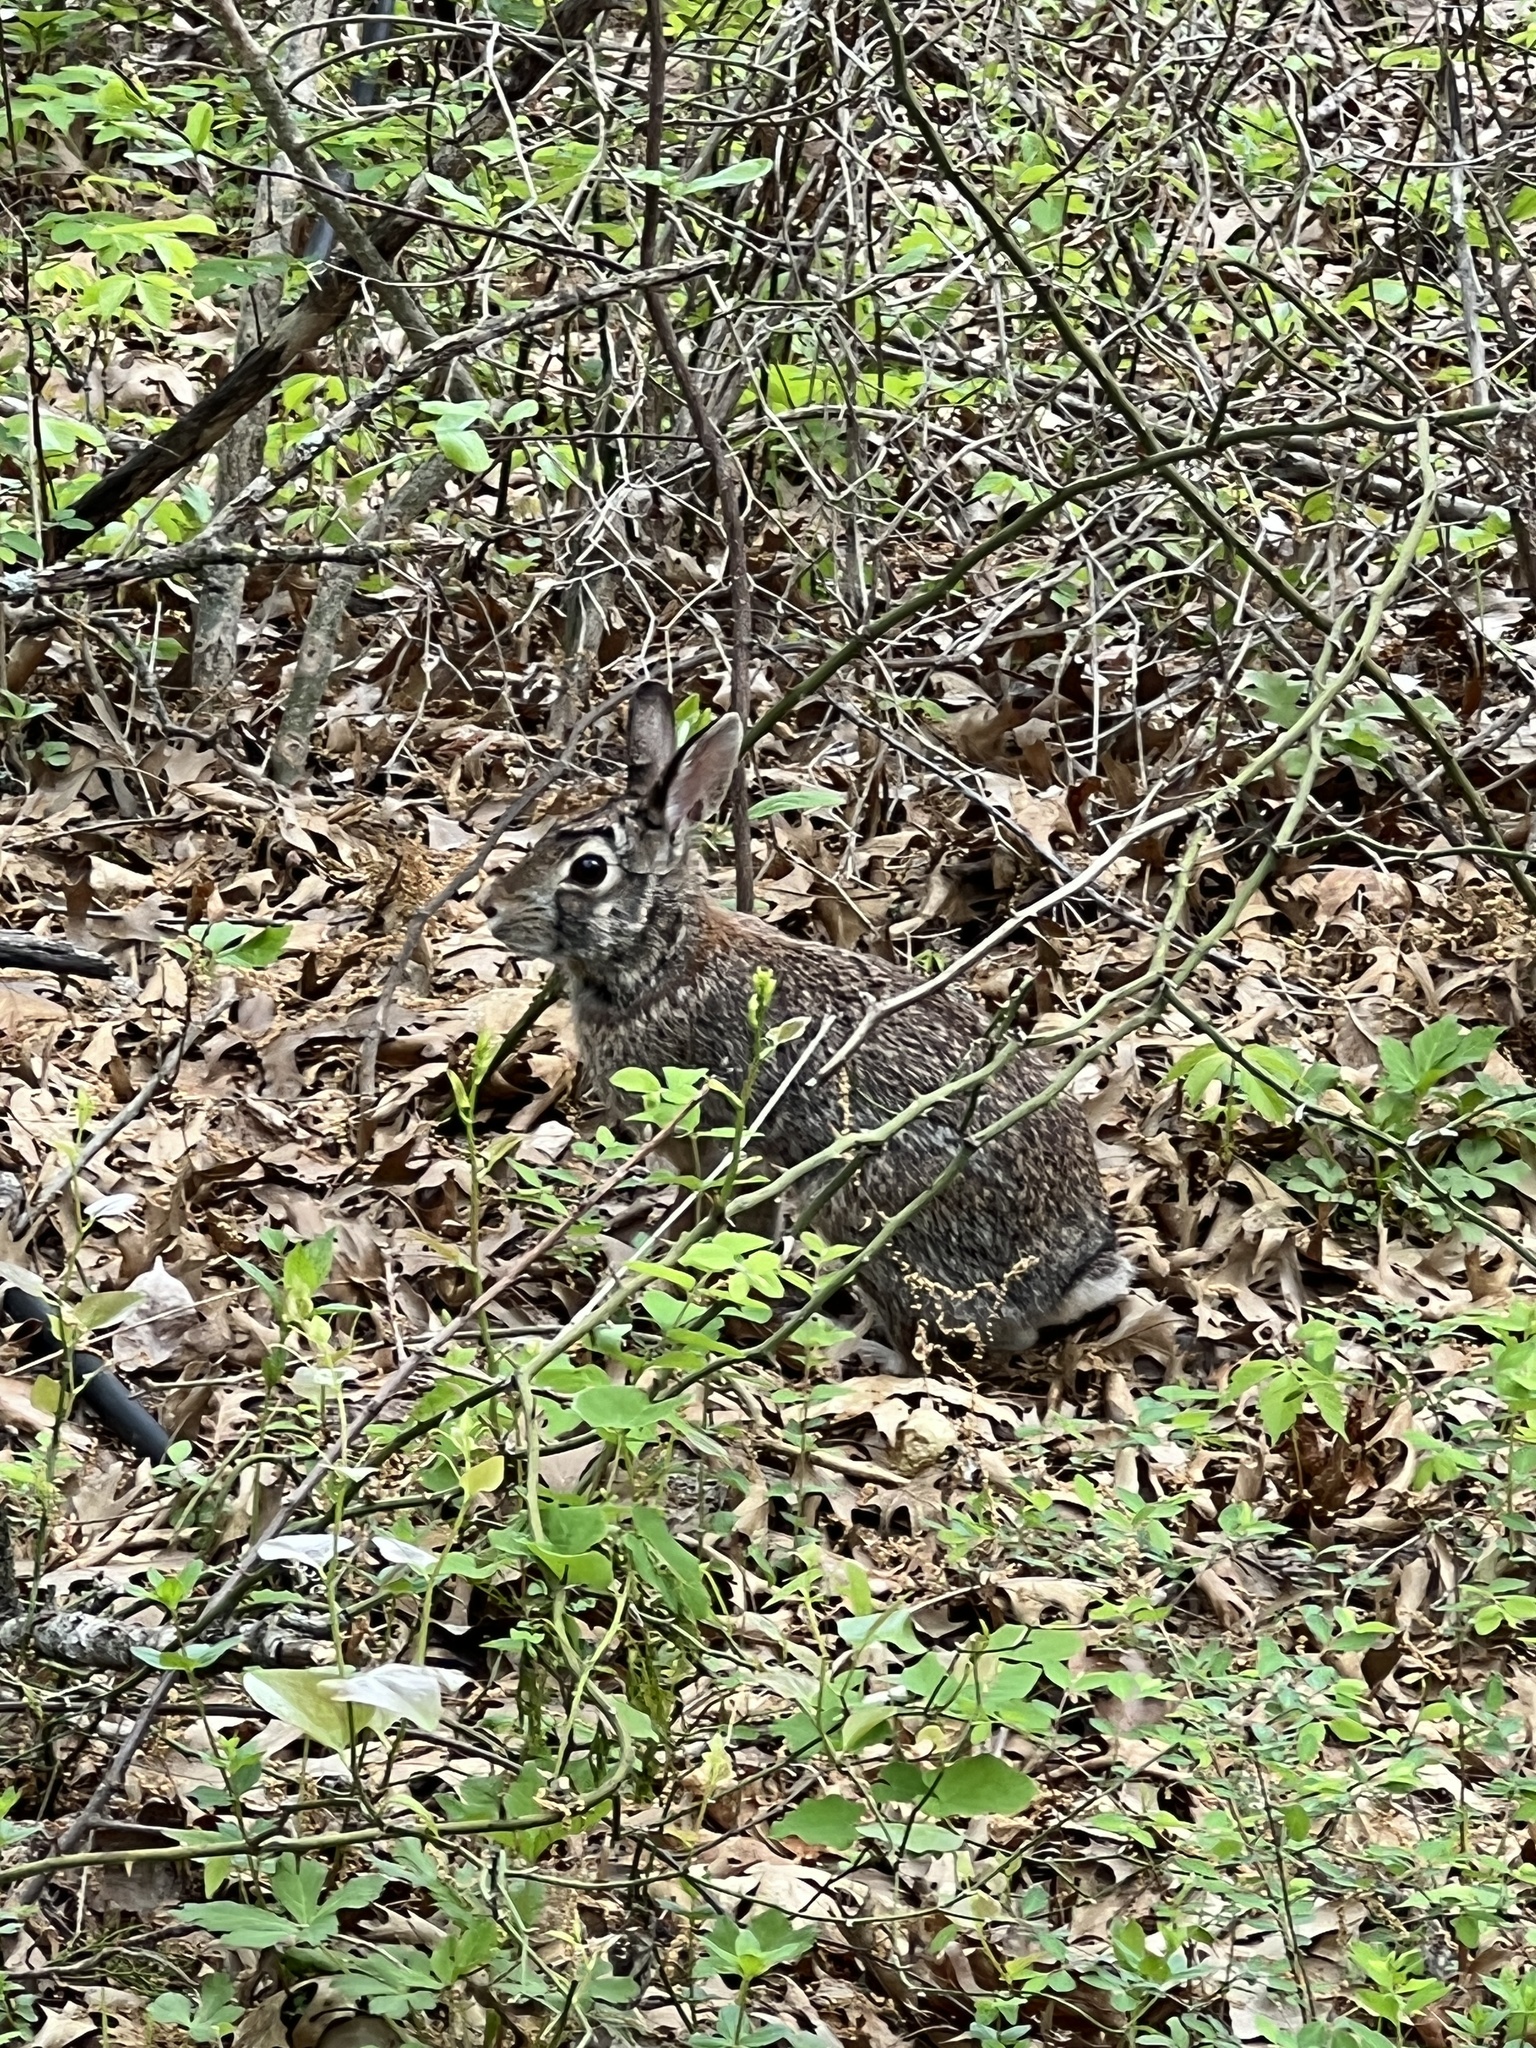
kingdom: Animalia
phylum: Chordata
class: Mammalia
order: Lagomorpha
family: Leporidae
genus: Sylvilagus
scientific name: Sylvilagus floridanus
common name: Eastern cottontail
